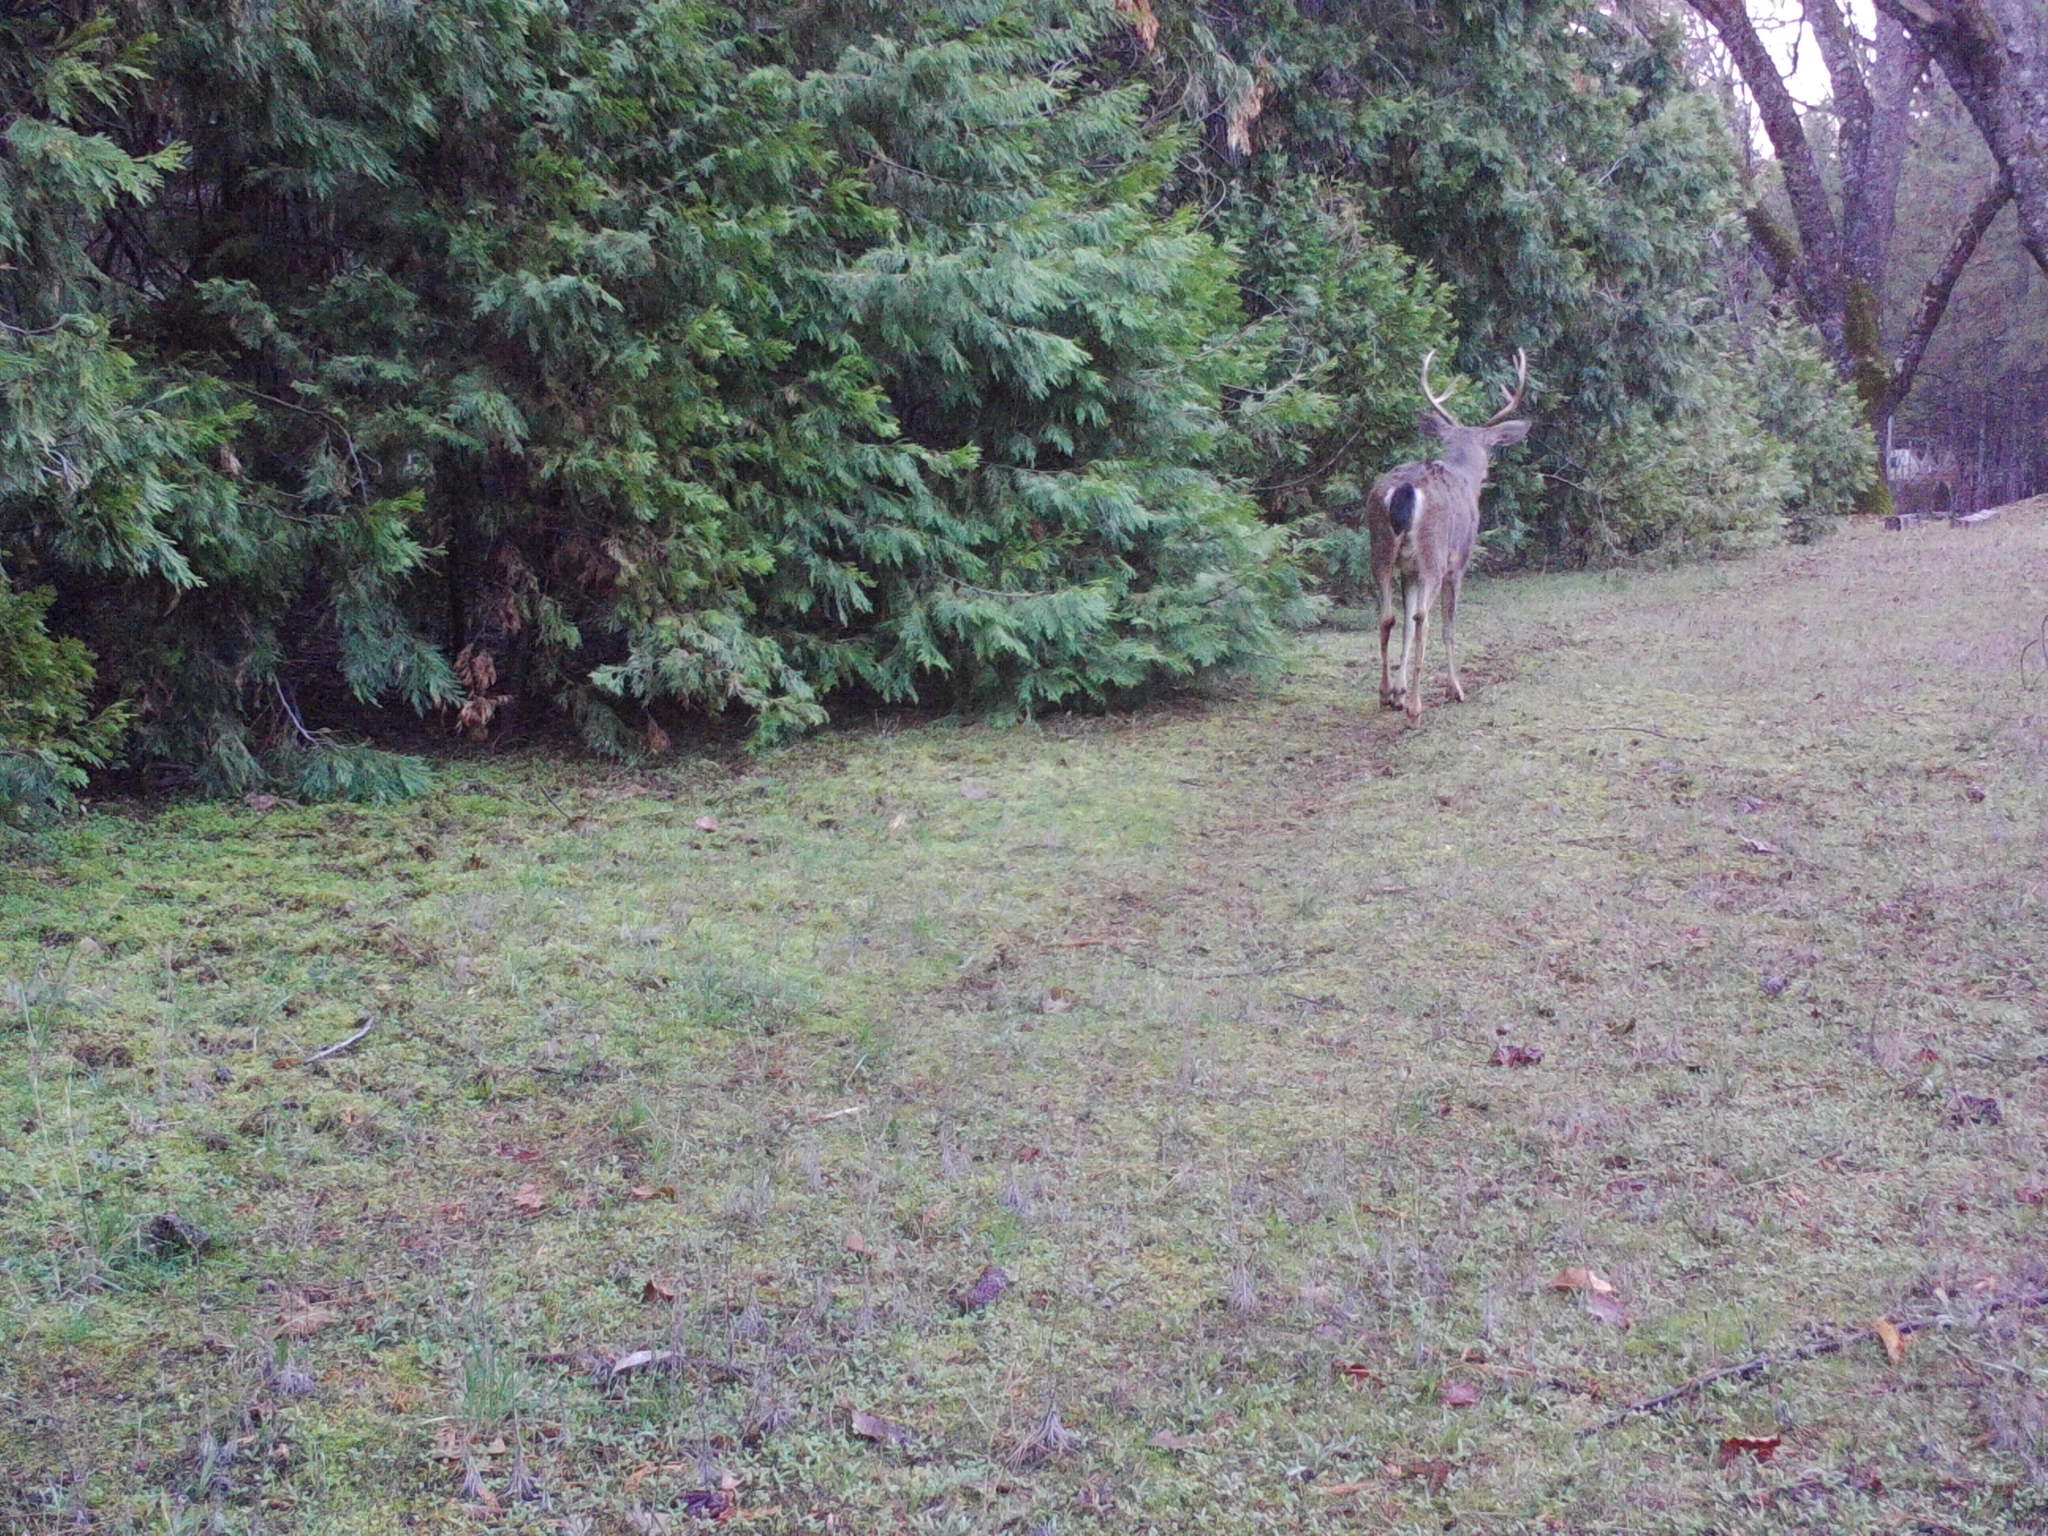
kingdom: Animalia
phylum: Chordata
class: Mammalia
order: Artiodactyla
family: Cervidae
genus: Odocoileus
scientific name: Odocoileus hemionus
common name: Mule deer
